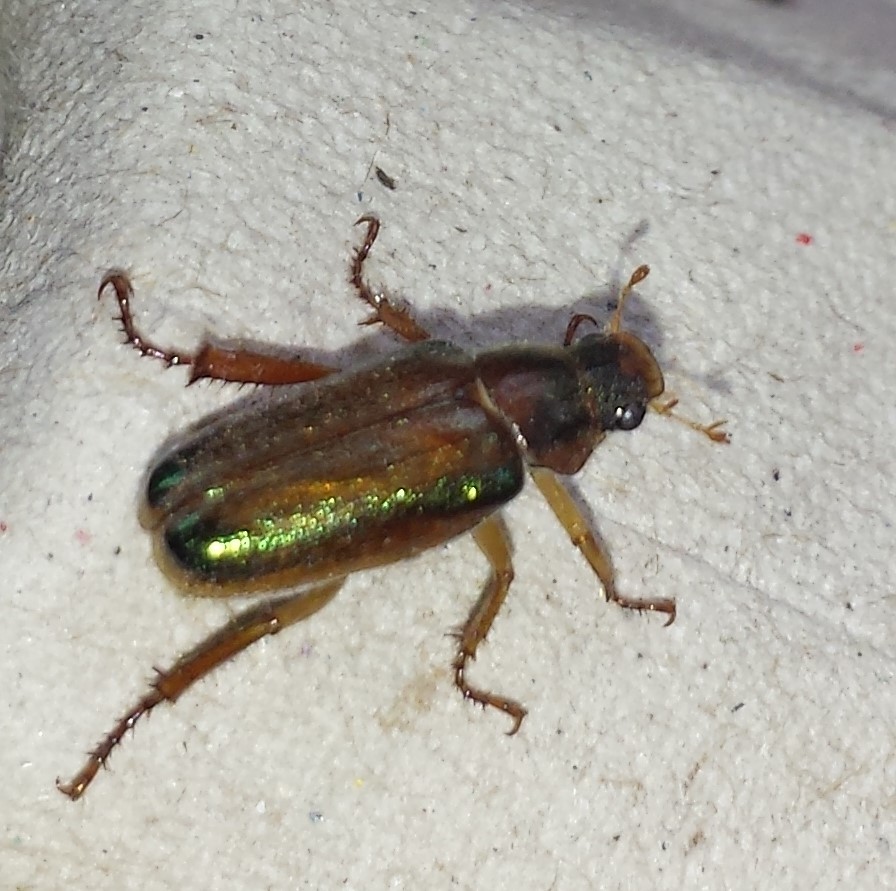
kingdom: Animalia
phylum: Arthropoda
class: Insecta
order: Coleoptera
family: Scarabaeidae
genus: Dichelonyx
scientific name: Dichelonyx subvittata
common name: Bronzed chafer
